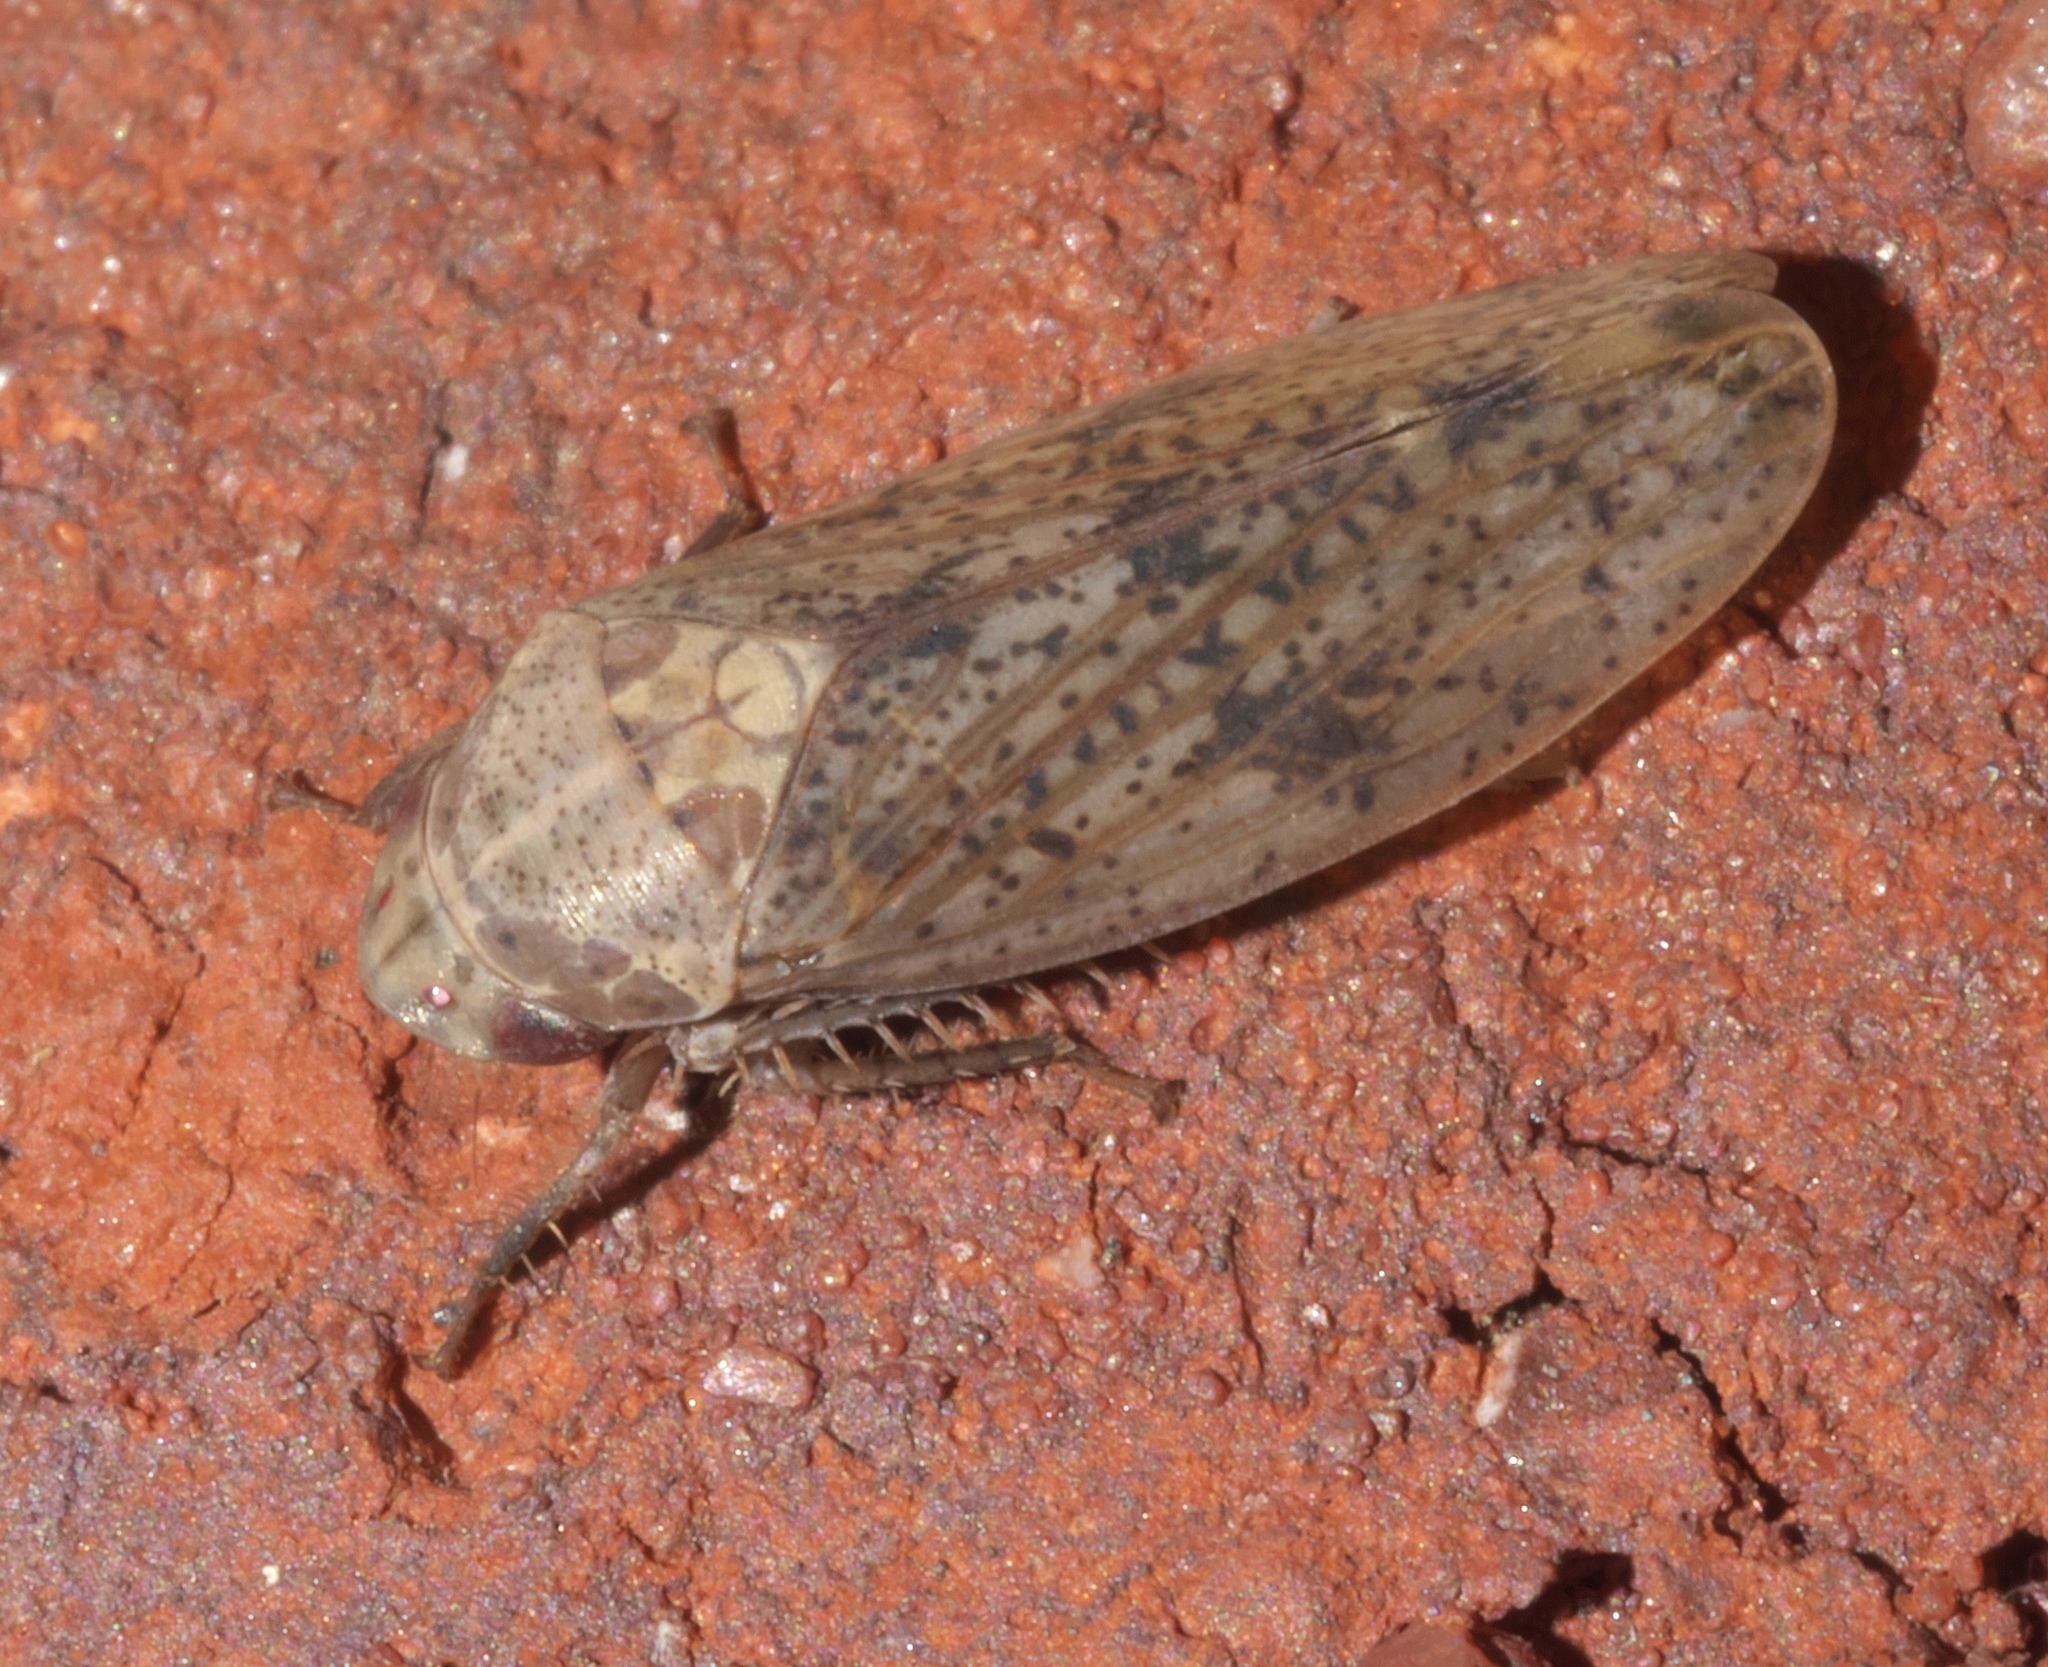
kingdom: Animalia
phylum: Arthropoda
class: Insecta
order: Hemiptera
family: Cicadellidae
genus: Ponana
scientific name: Ponana puncticollis
